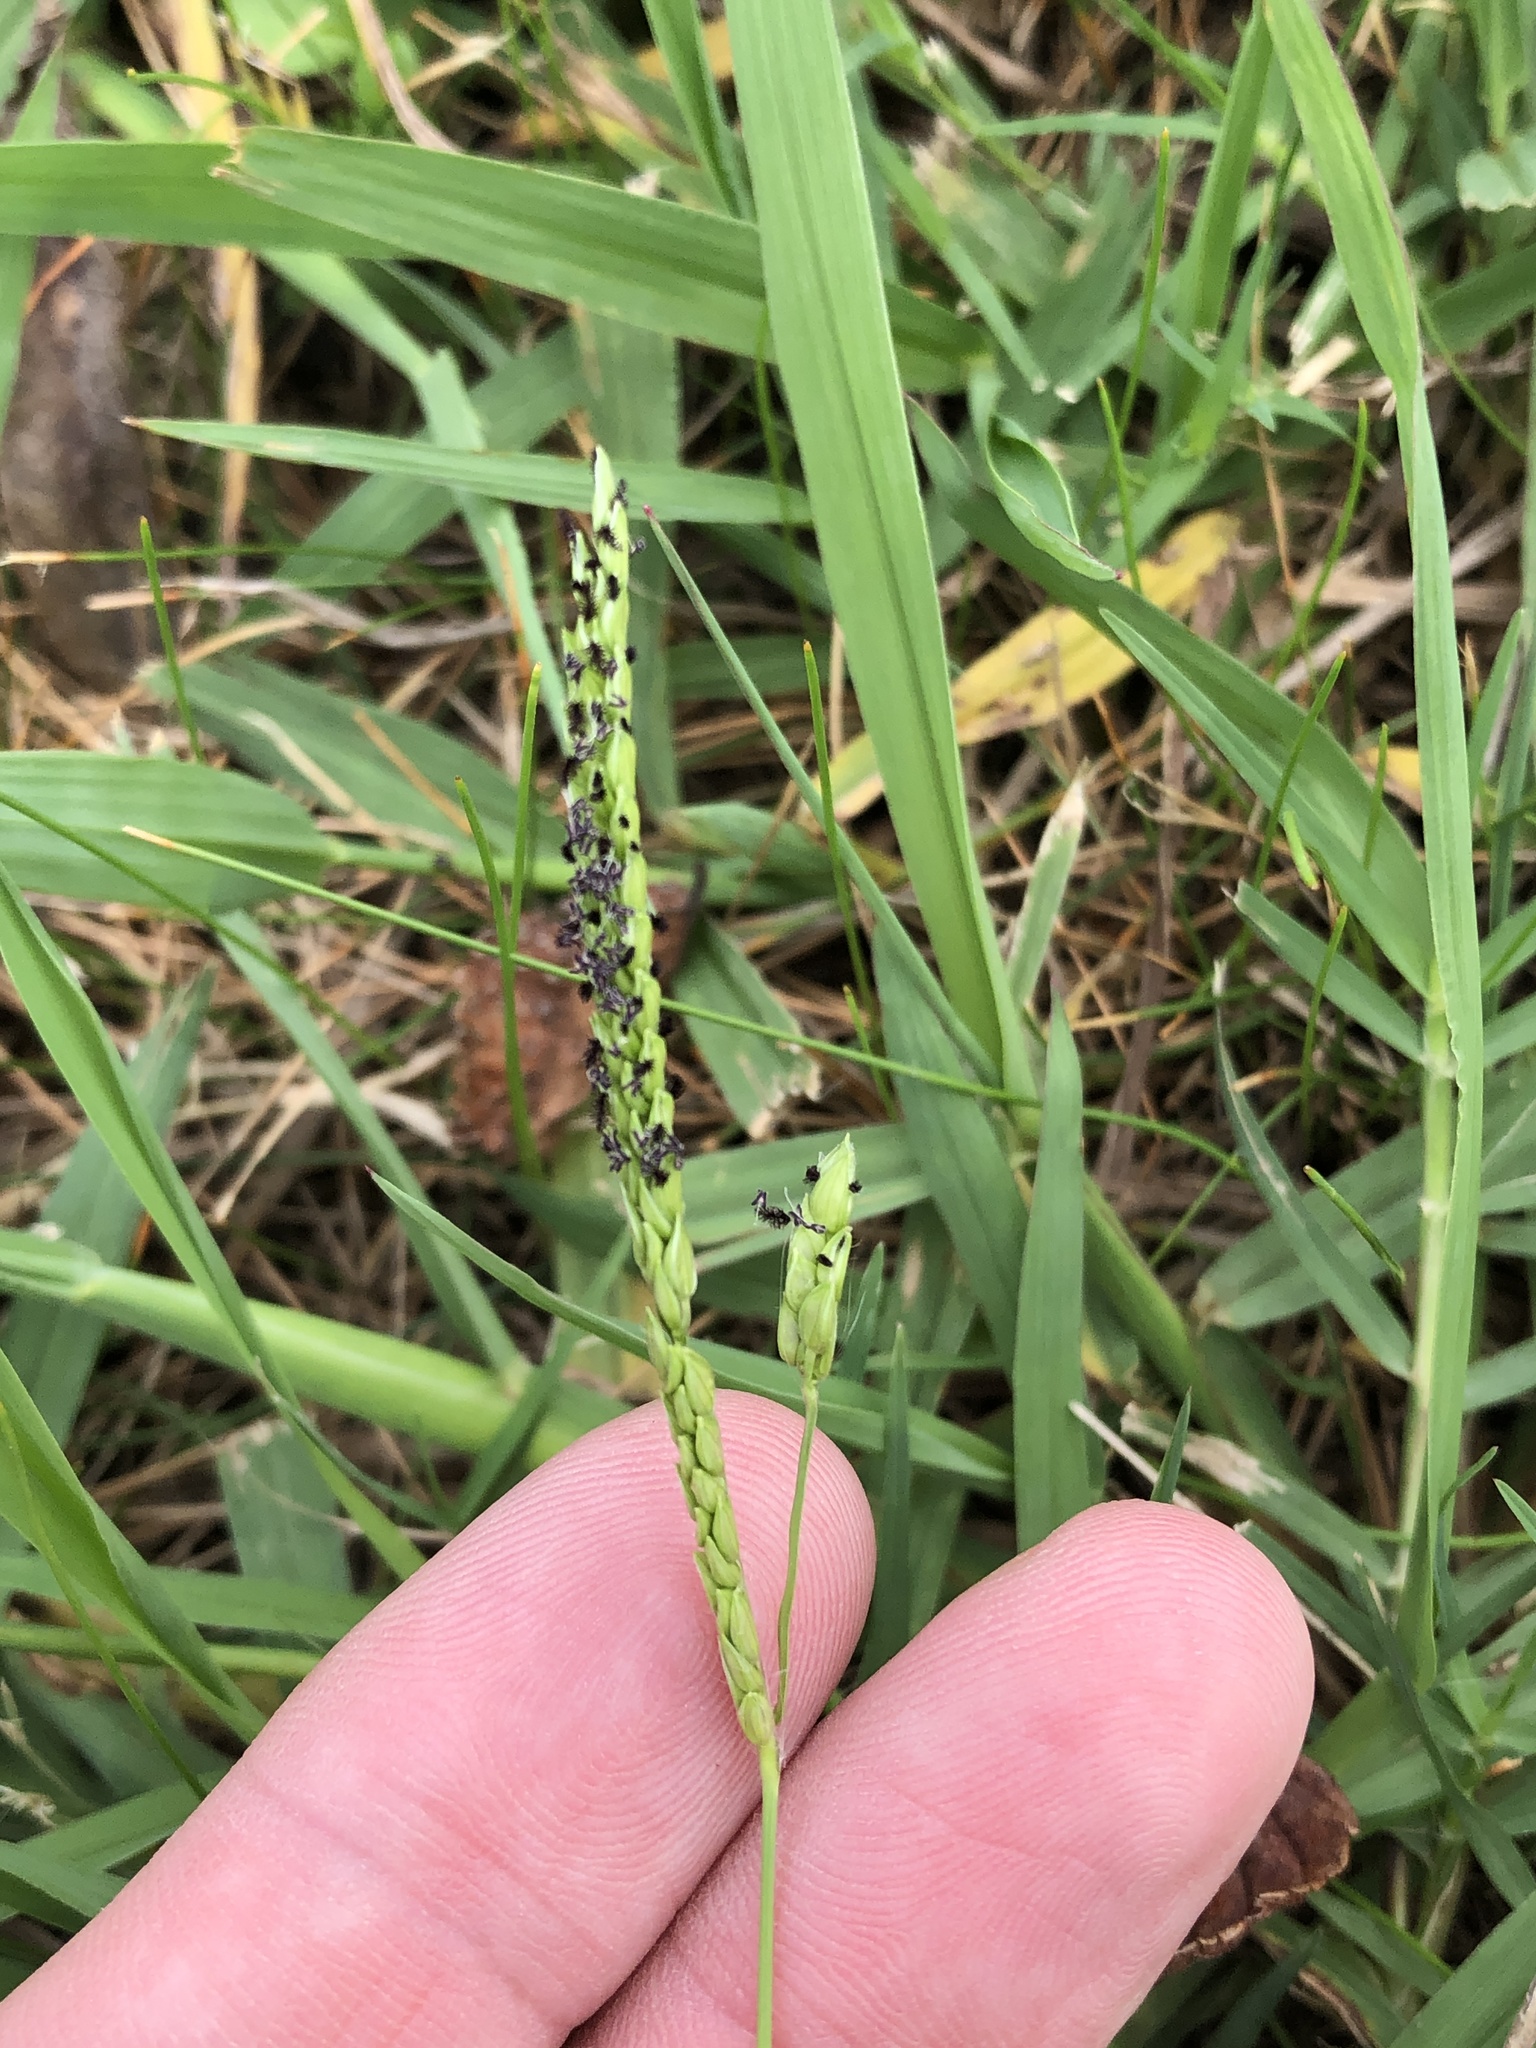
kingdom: Plantae
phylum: Tracheophyta
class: Liliopsida
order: Poales
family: Poaceae
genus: Paspalum
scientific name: Paspalum dilatatum
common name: Dallisgrass
